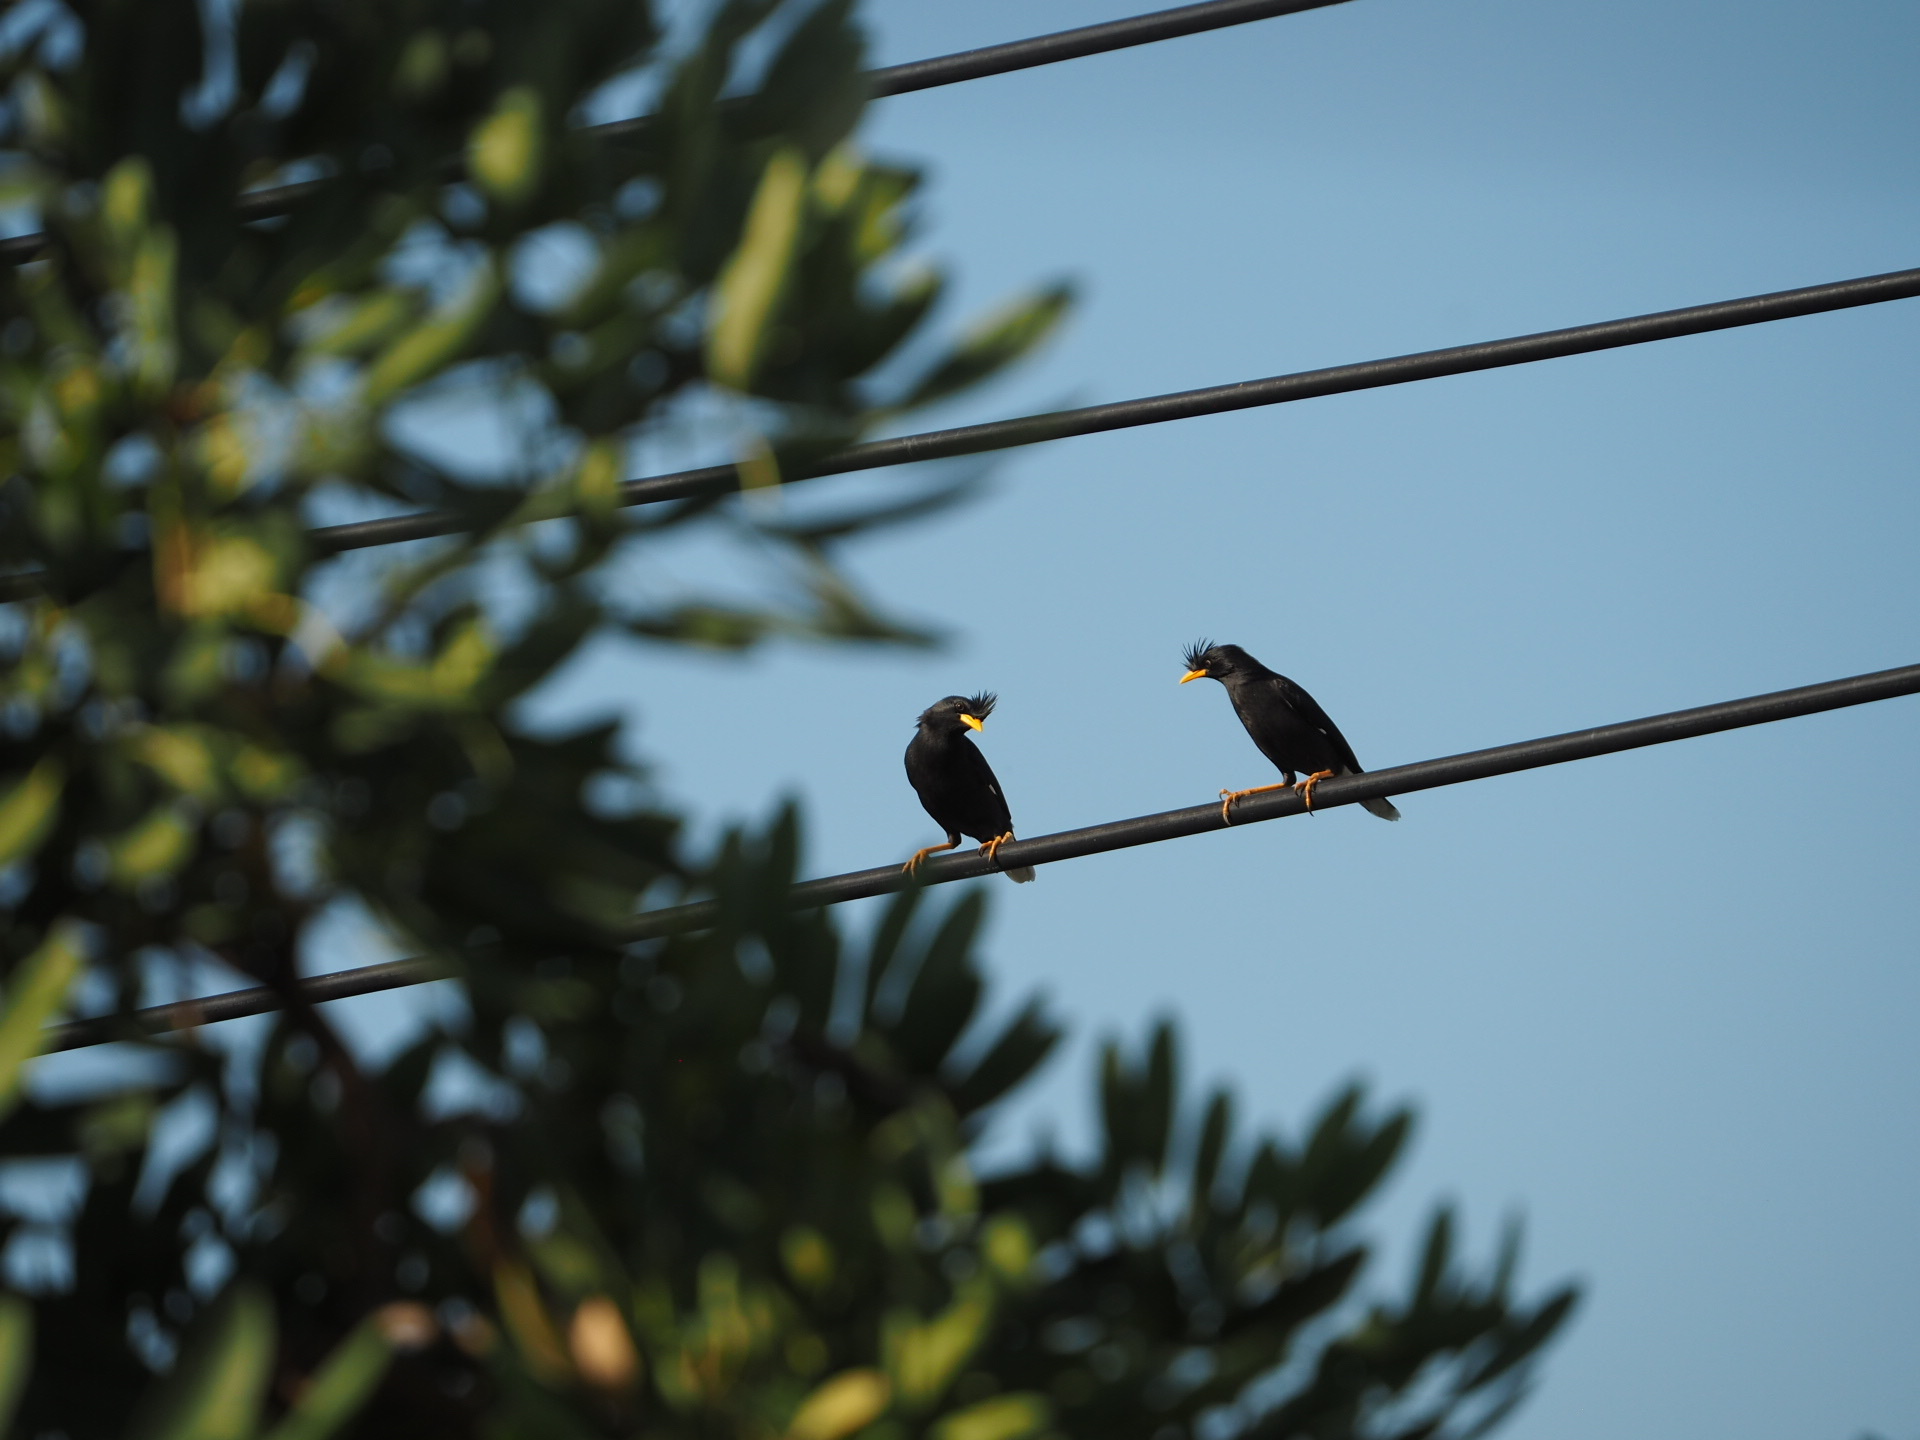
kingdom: Animalia
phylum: Chordata
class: Aves
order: Passeriformes
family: Sturnidae
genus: Acridotheres
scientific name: Acridotheres grandis
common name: Great myna
